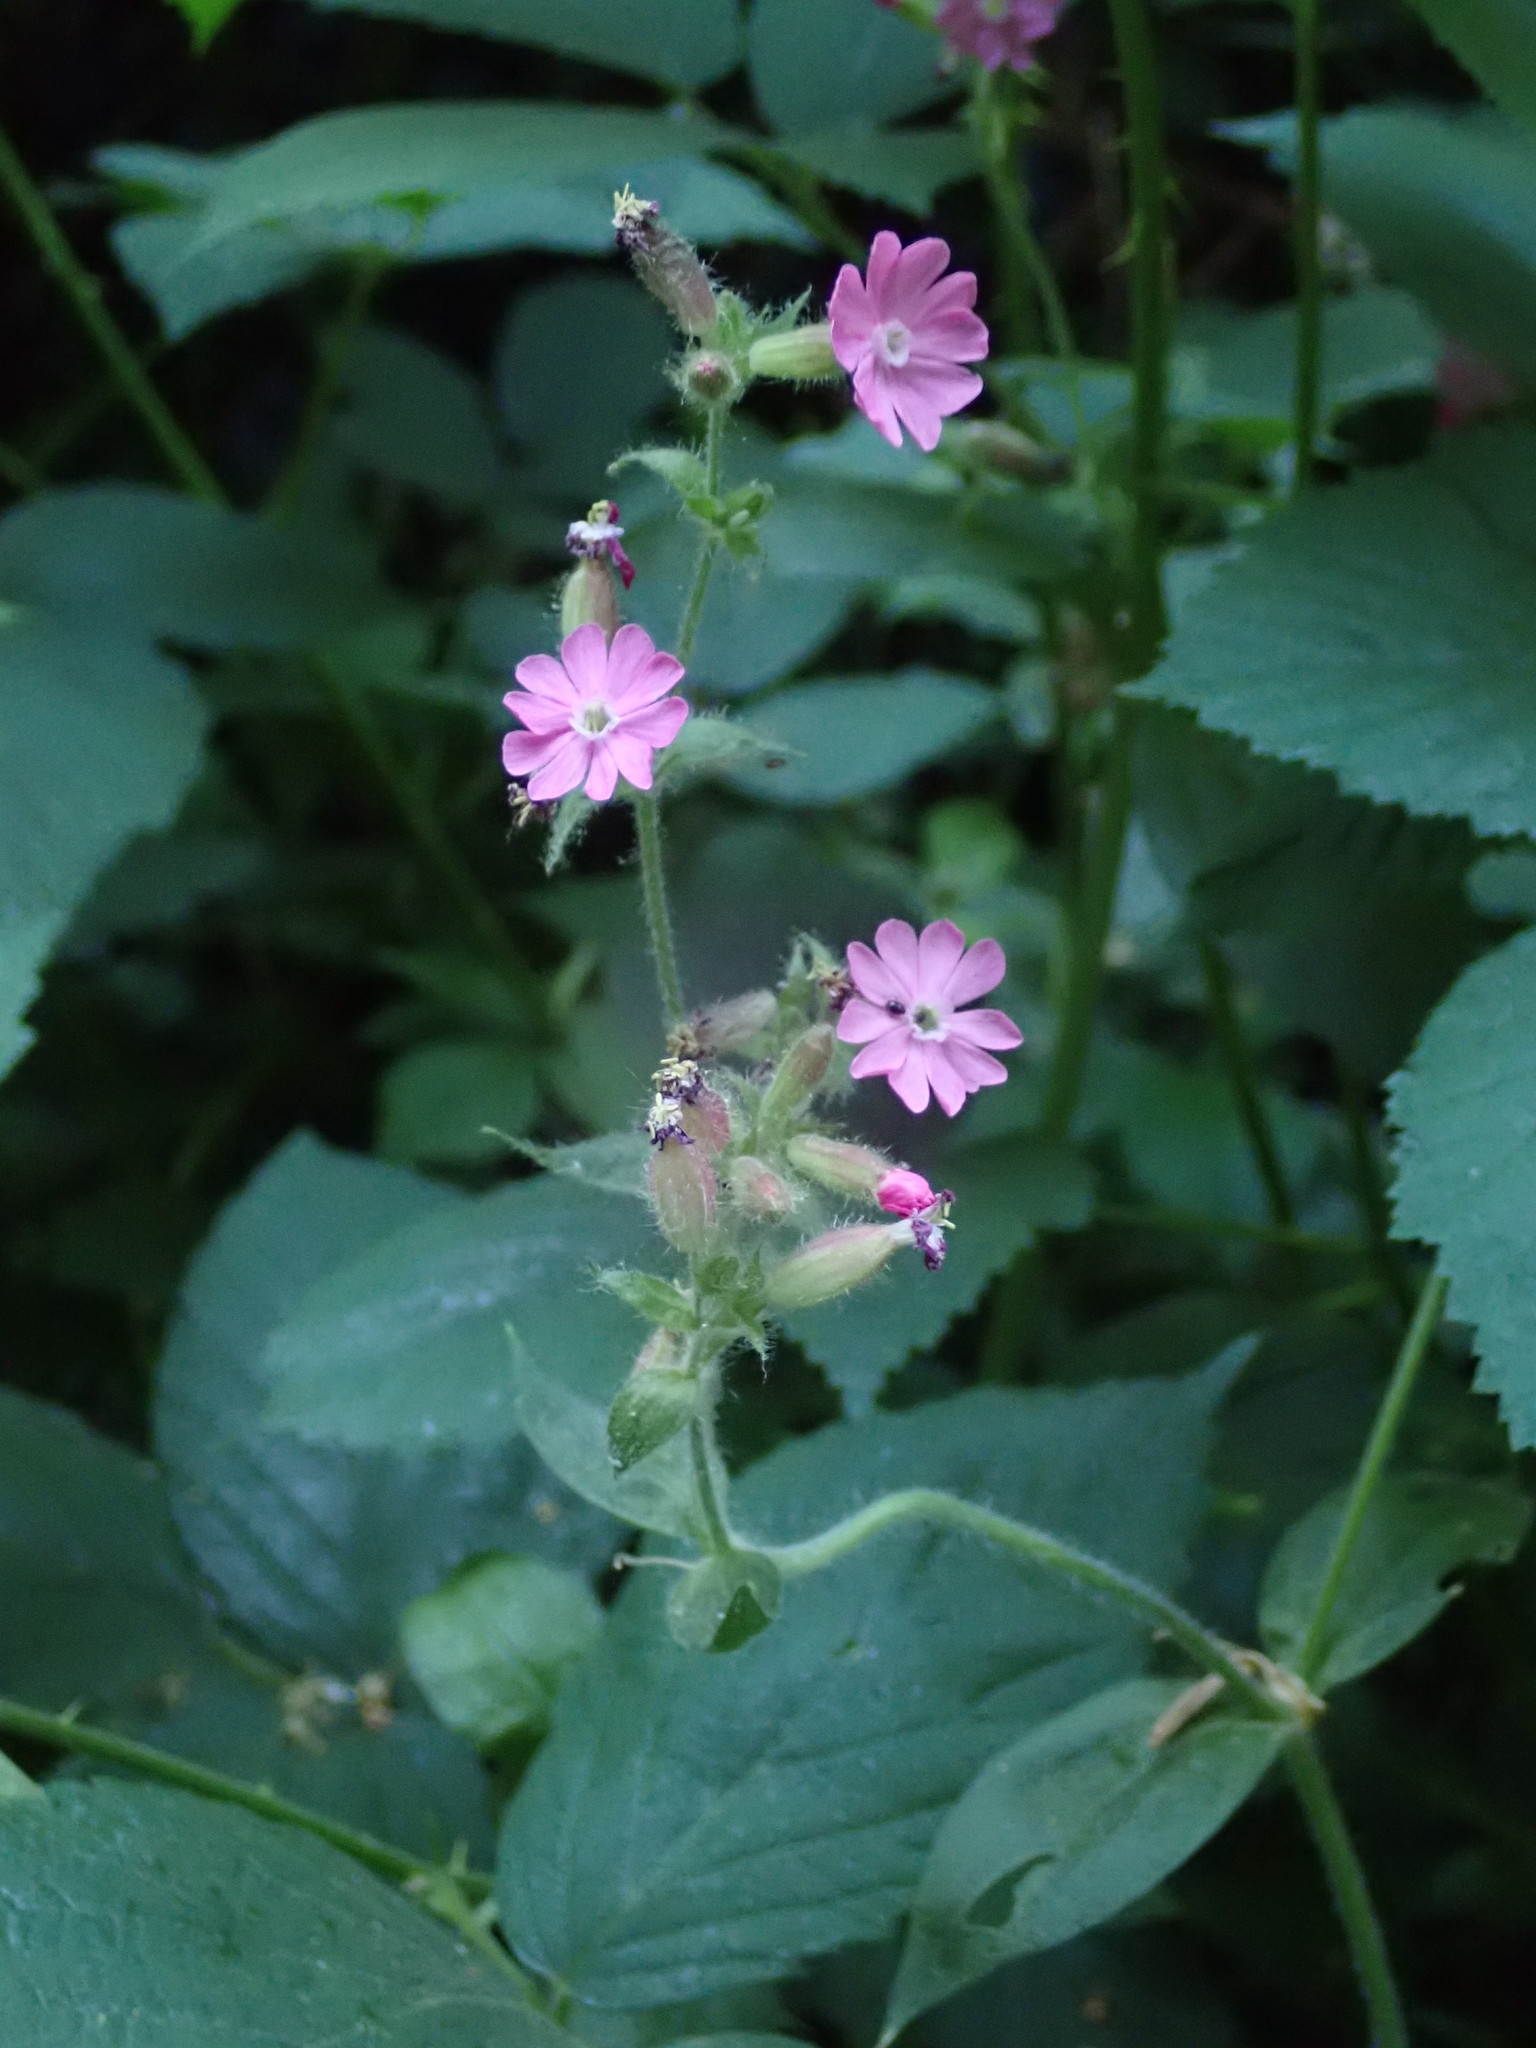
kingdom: Plantae
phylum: Tracheophyta
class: Magnoliopsida
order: Caryophyllales
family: Caryophyllaceae
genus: Silene
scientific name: Silene dioica
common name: Red campion
